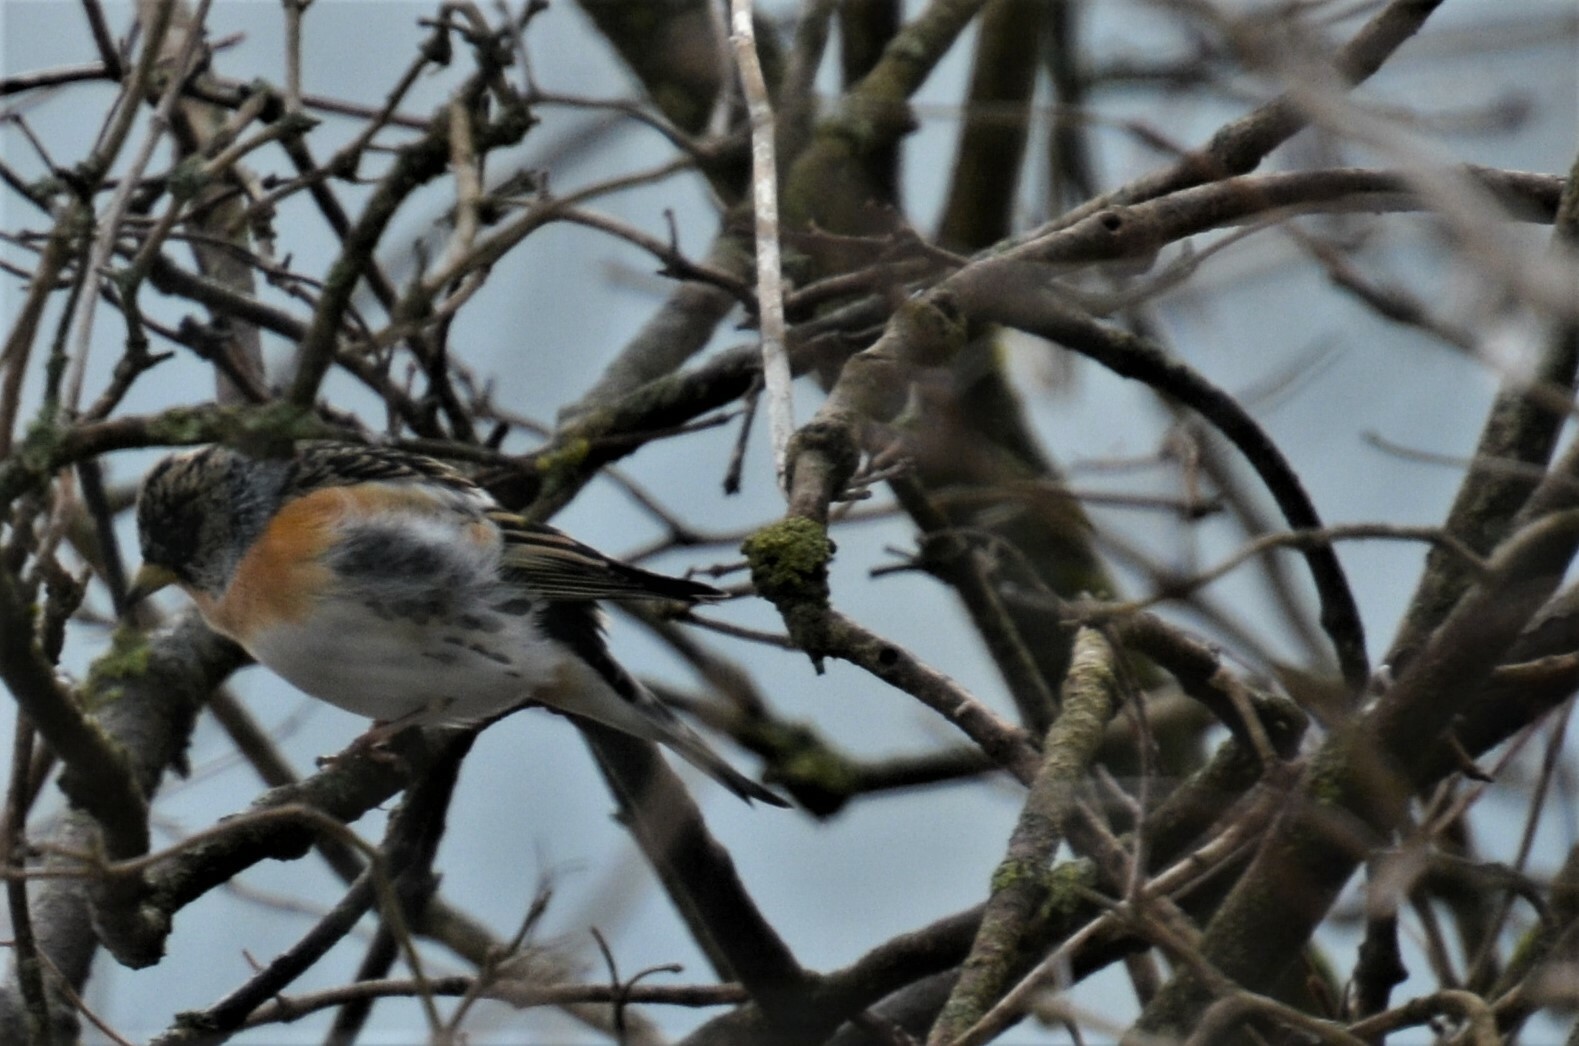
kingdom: Animalia
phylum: Chordata
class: Aves
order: Passeriformes
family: Fringillidae
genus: Fringilla
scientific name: Fringilla montifringilla
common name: Brambling
